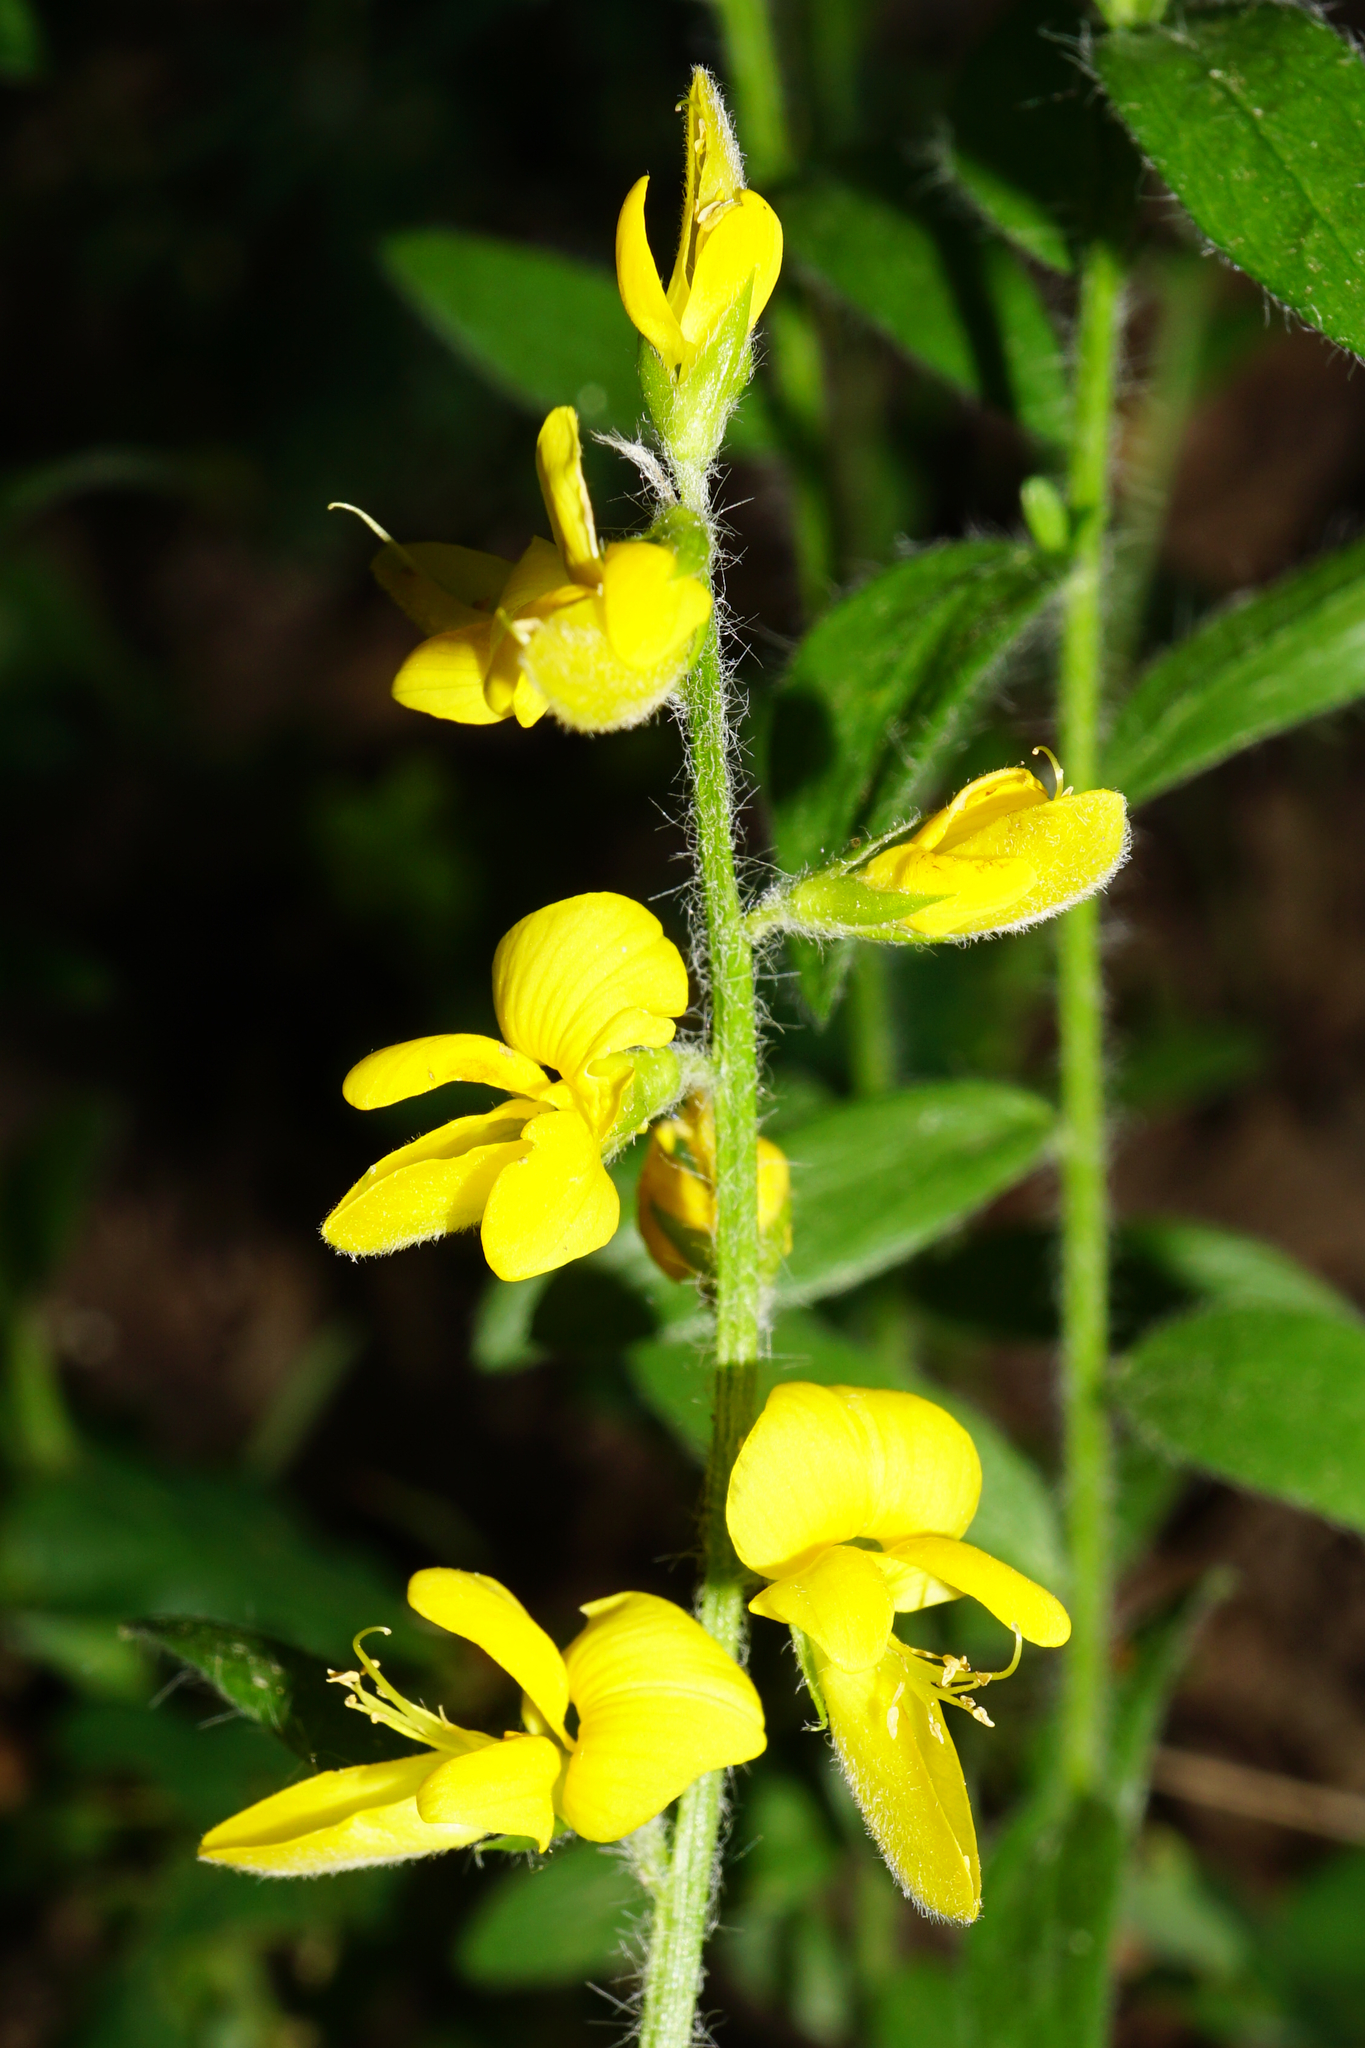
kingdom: Plantae
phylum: Tracheophyta
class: Magnoliopsida
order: Fabales
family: Fabaceae
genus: Genista
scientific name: Genista germanica
